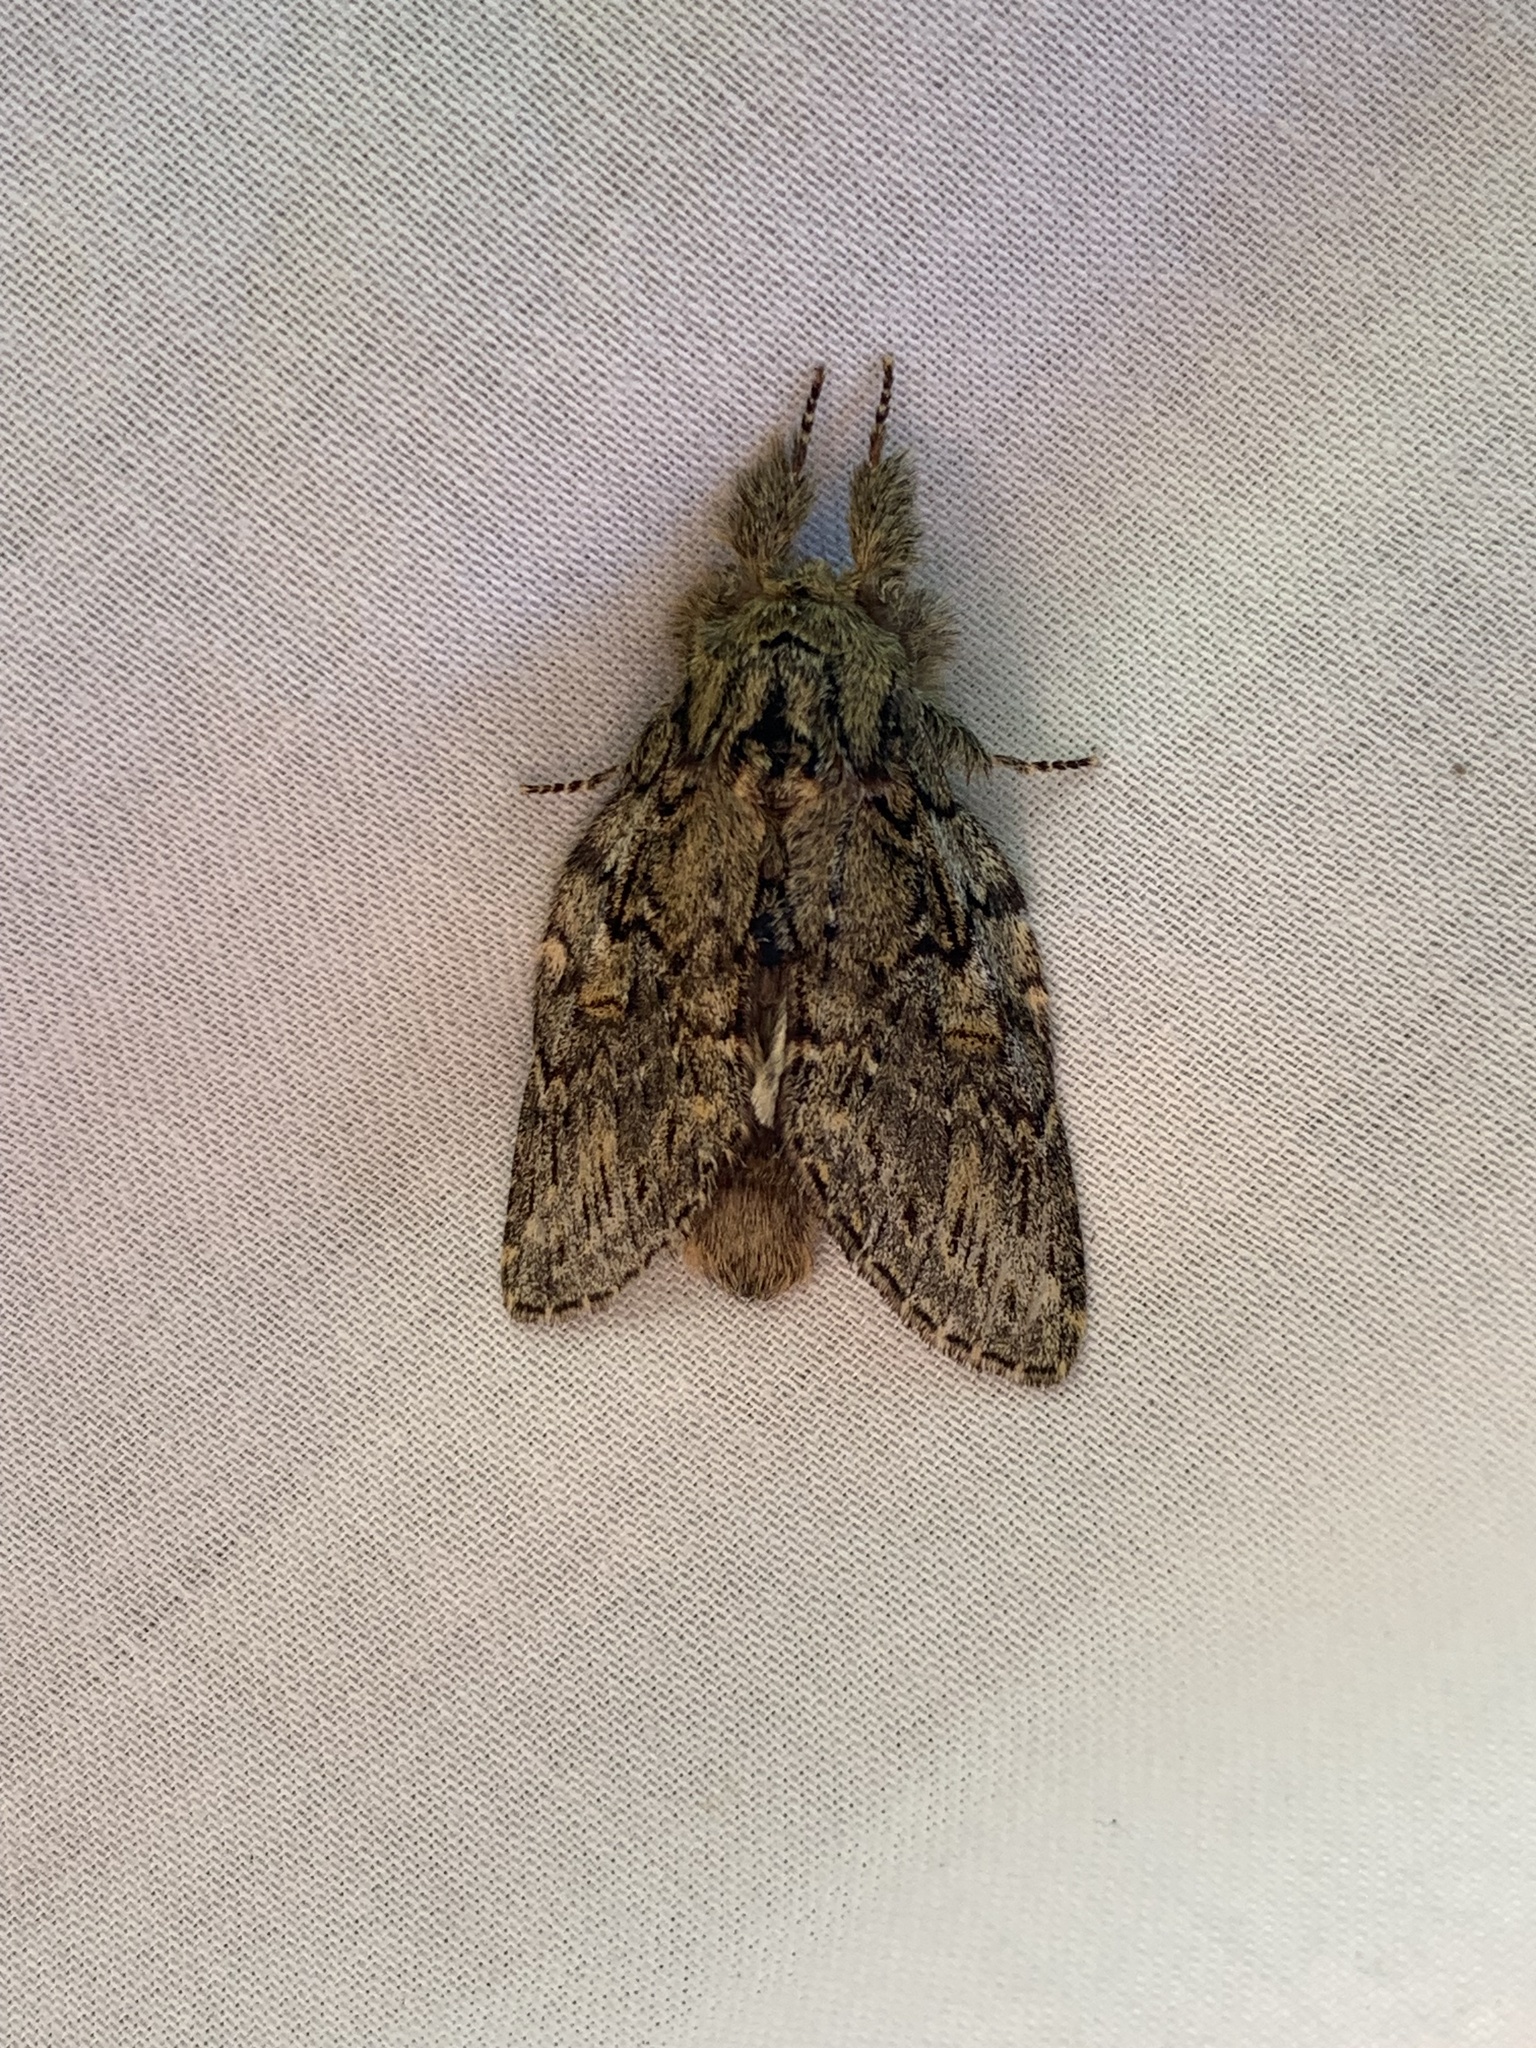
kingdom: Animalia
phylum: Arthropoda
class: Insecta
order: Lepidoptera
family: Notodontidae
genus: Peridea
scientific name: Peridea anceps
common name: Great prominent
